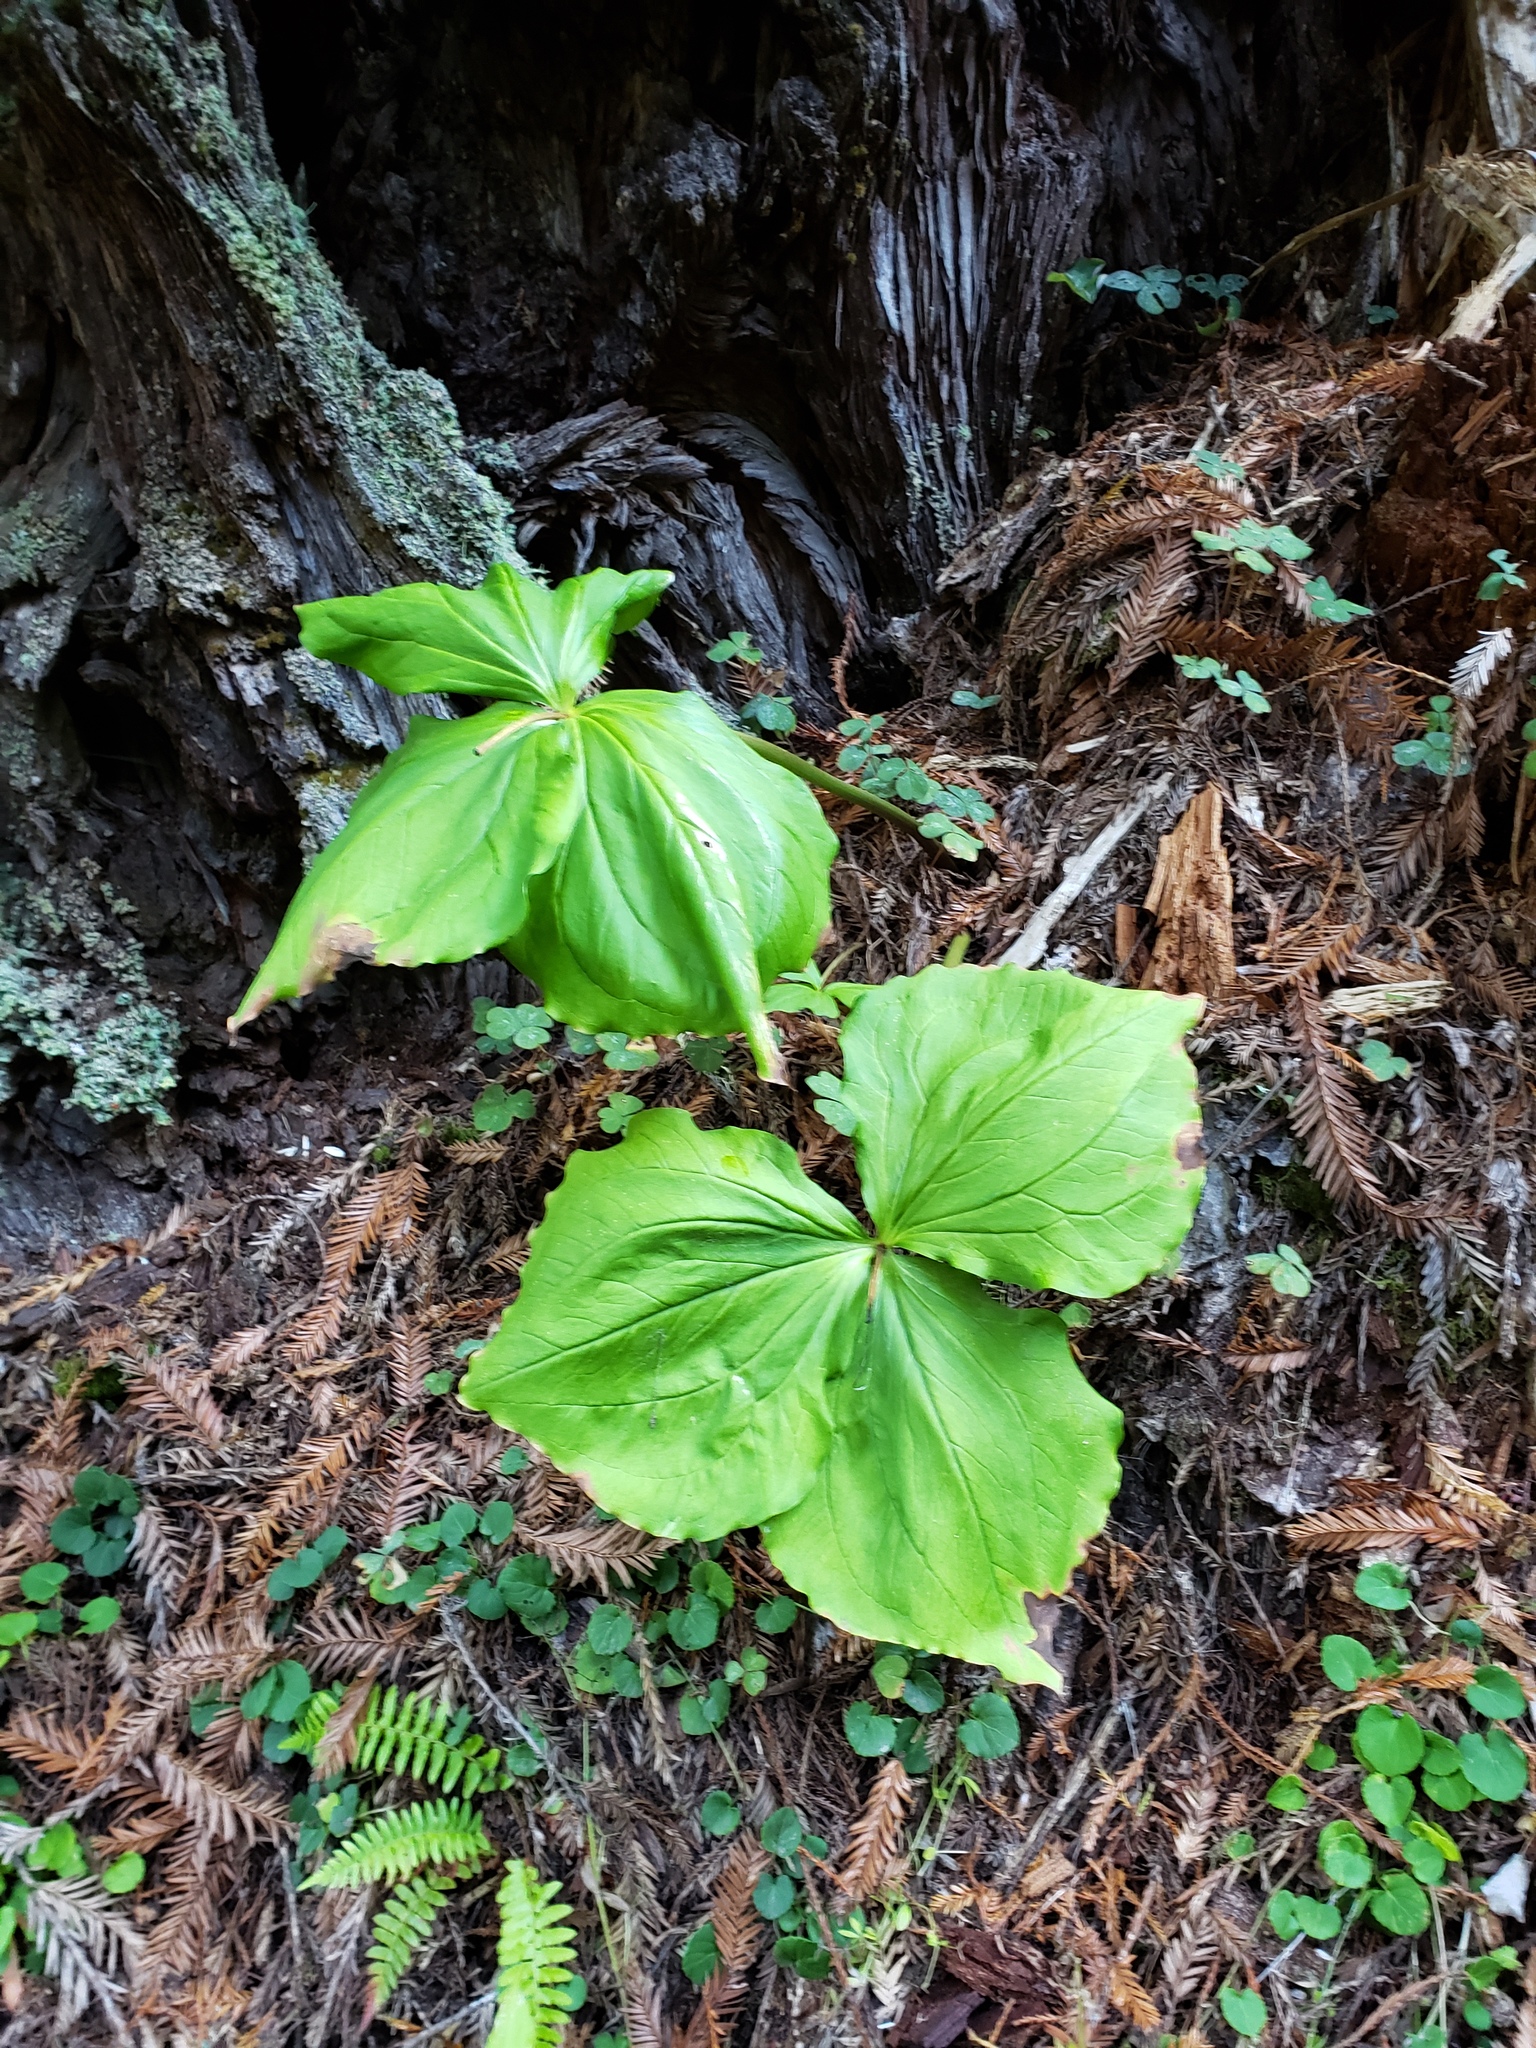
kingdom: Plantae
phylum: Tracheophyta
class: Liliopsida
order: Liliales
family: Melanthiaceae
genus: Trillium
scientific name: Trillium ovatum
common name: Pacific trillium
